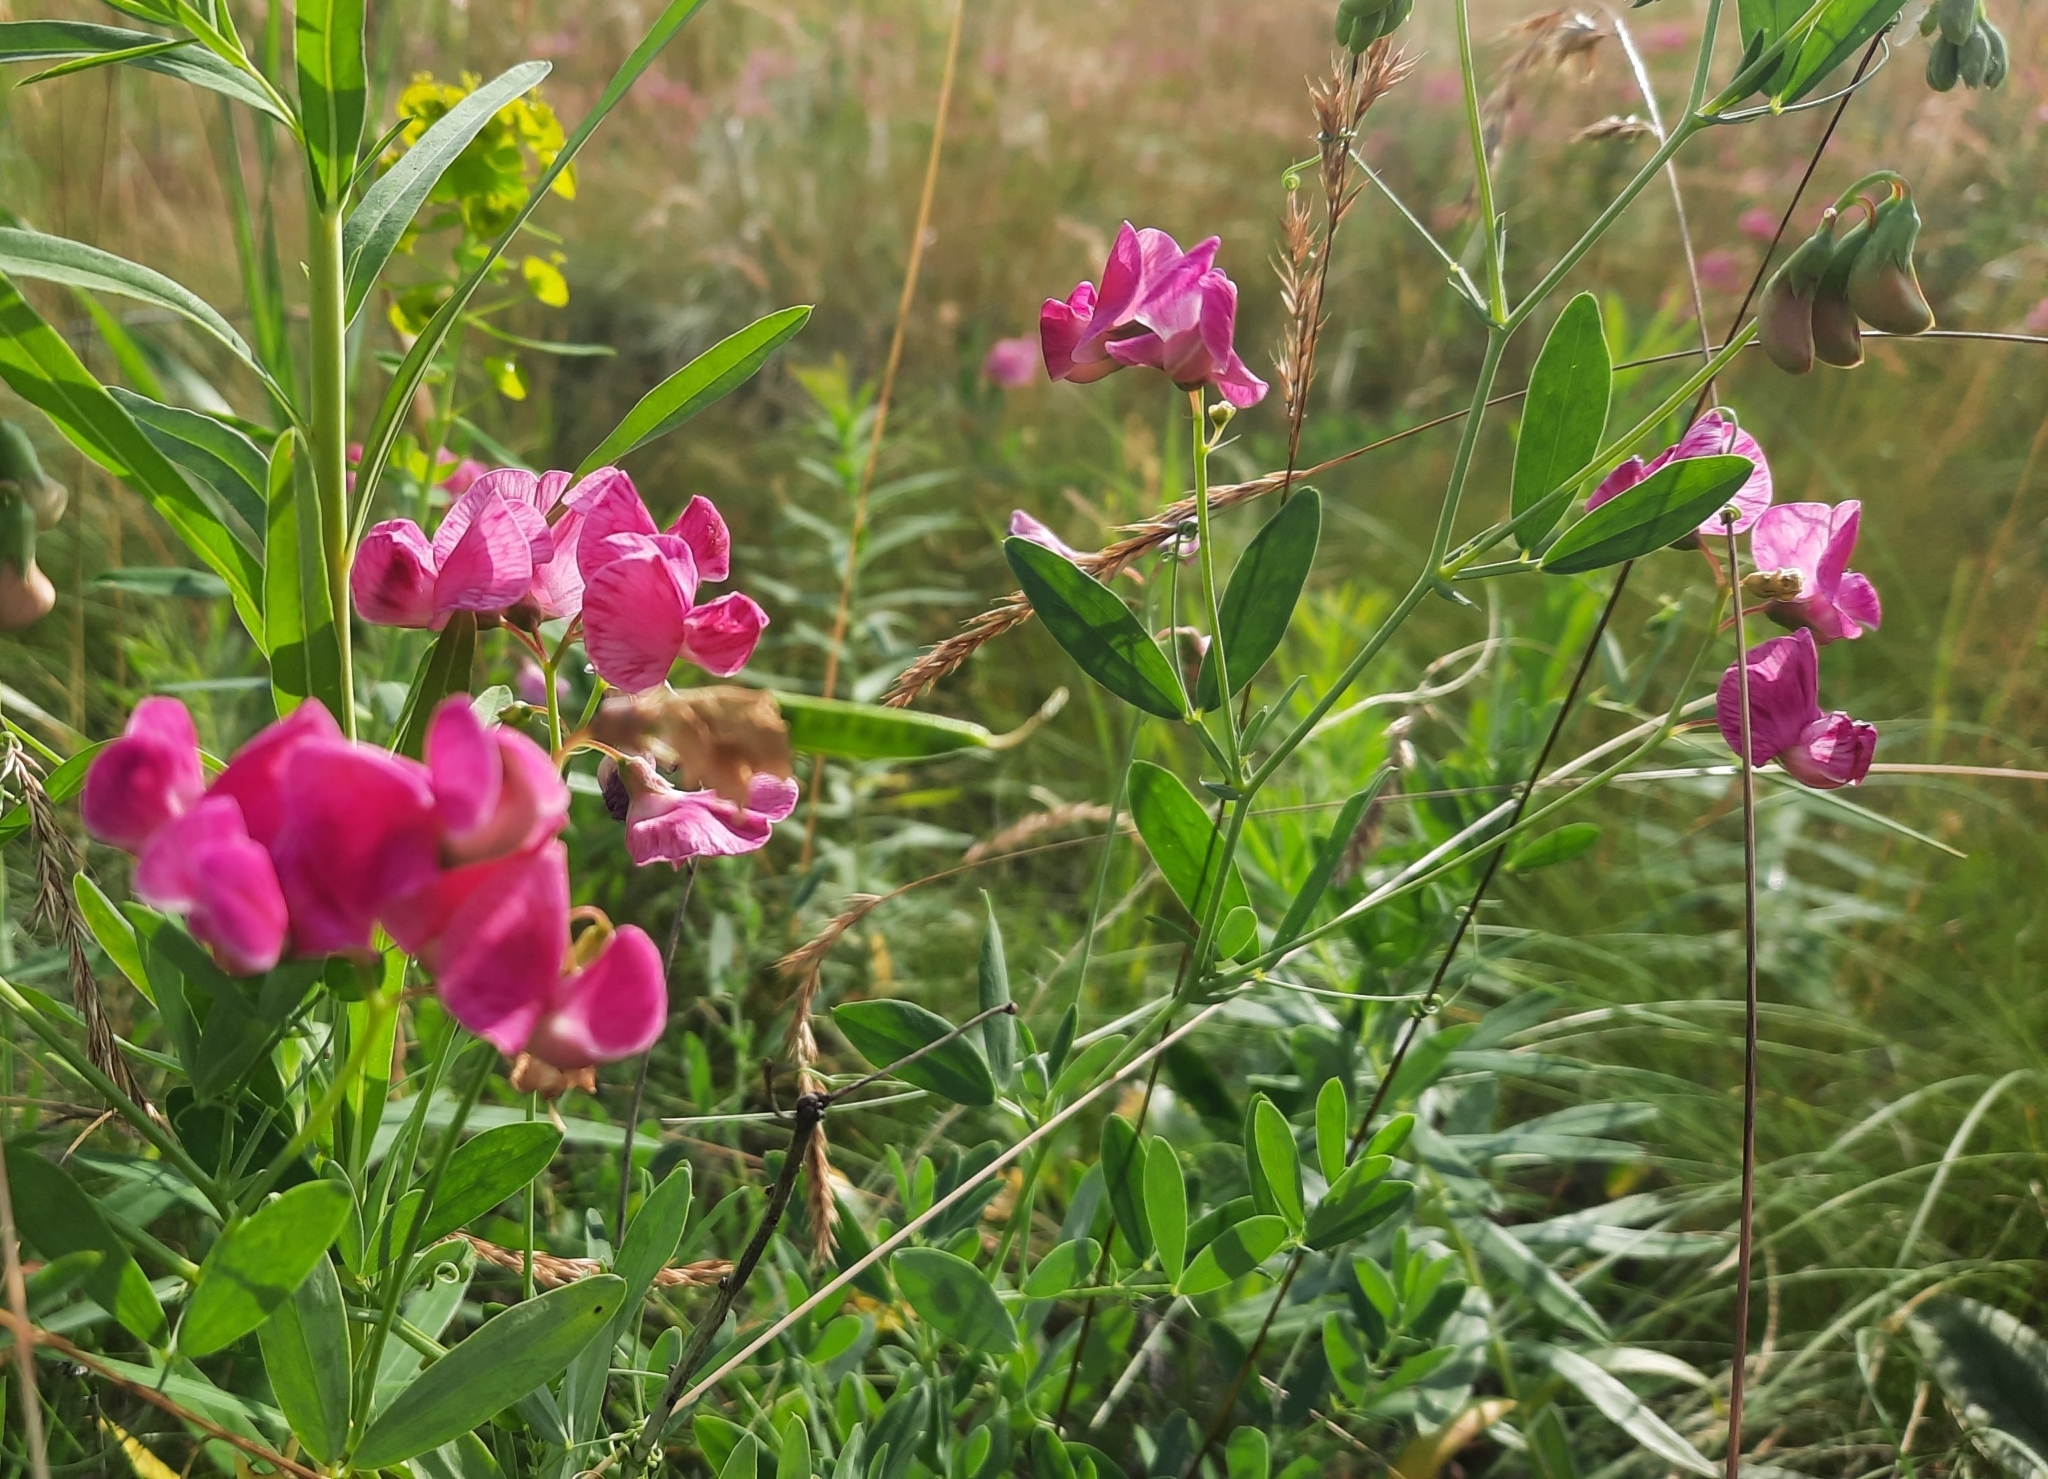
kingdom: Plantae
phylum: Tracheophyta
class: Magnoliopsida
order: Fabales
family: Fabaceae
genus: Lathyrus
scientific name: Lathyrus tuberosus
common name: Tuberous pea
